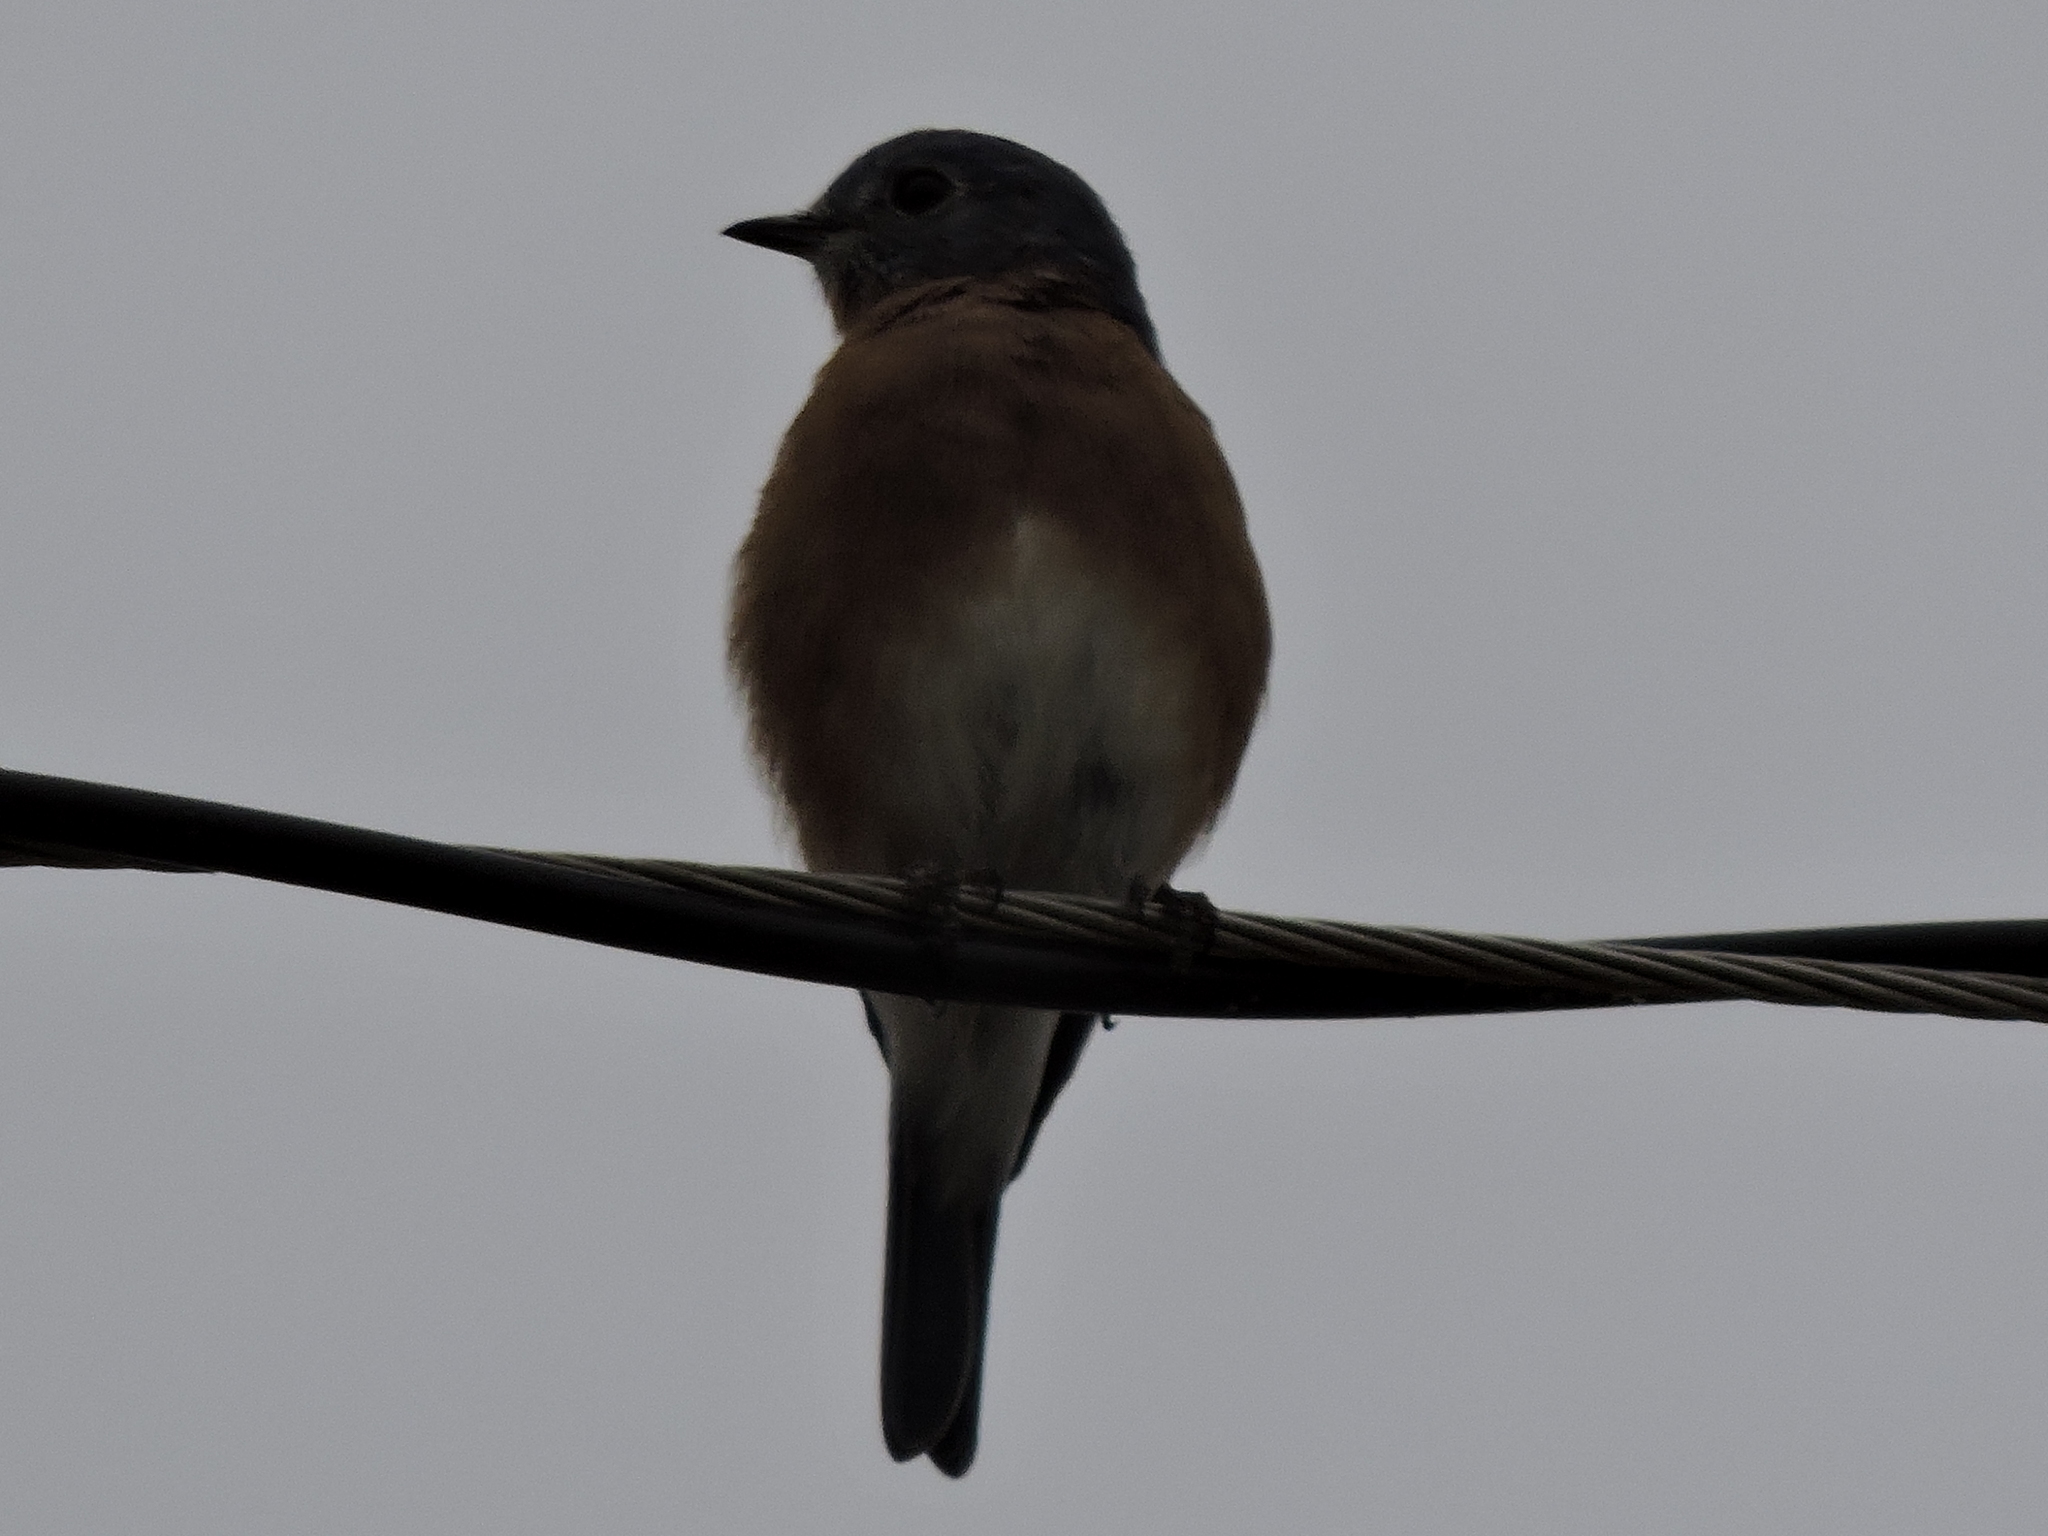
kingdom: Animalia
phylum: Chordata
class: Aves
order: Passeriformes
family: Turdidae
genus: Sialia
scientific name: Sialia sialis
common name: Eastern bluebird
